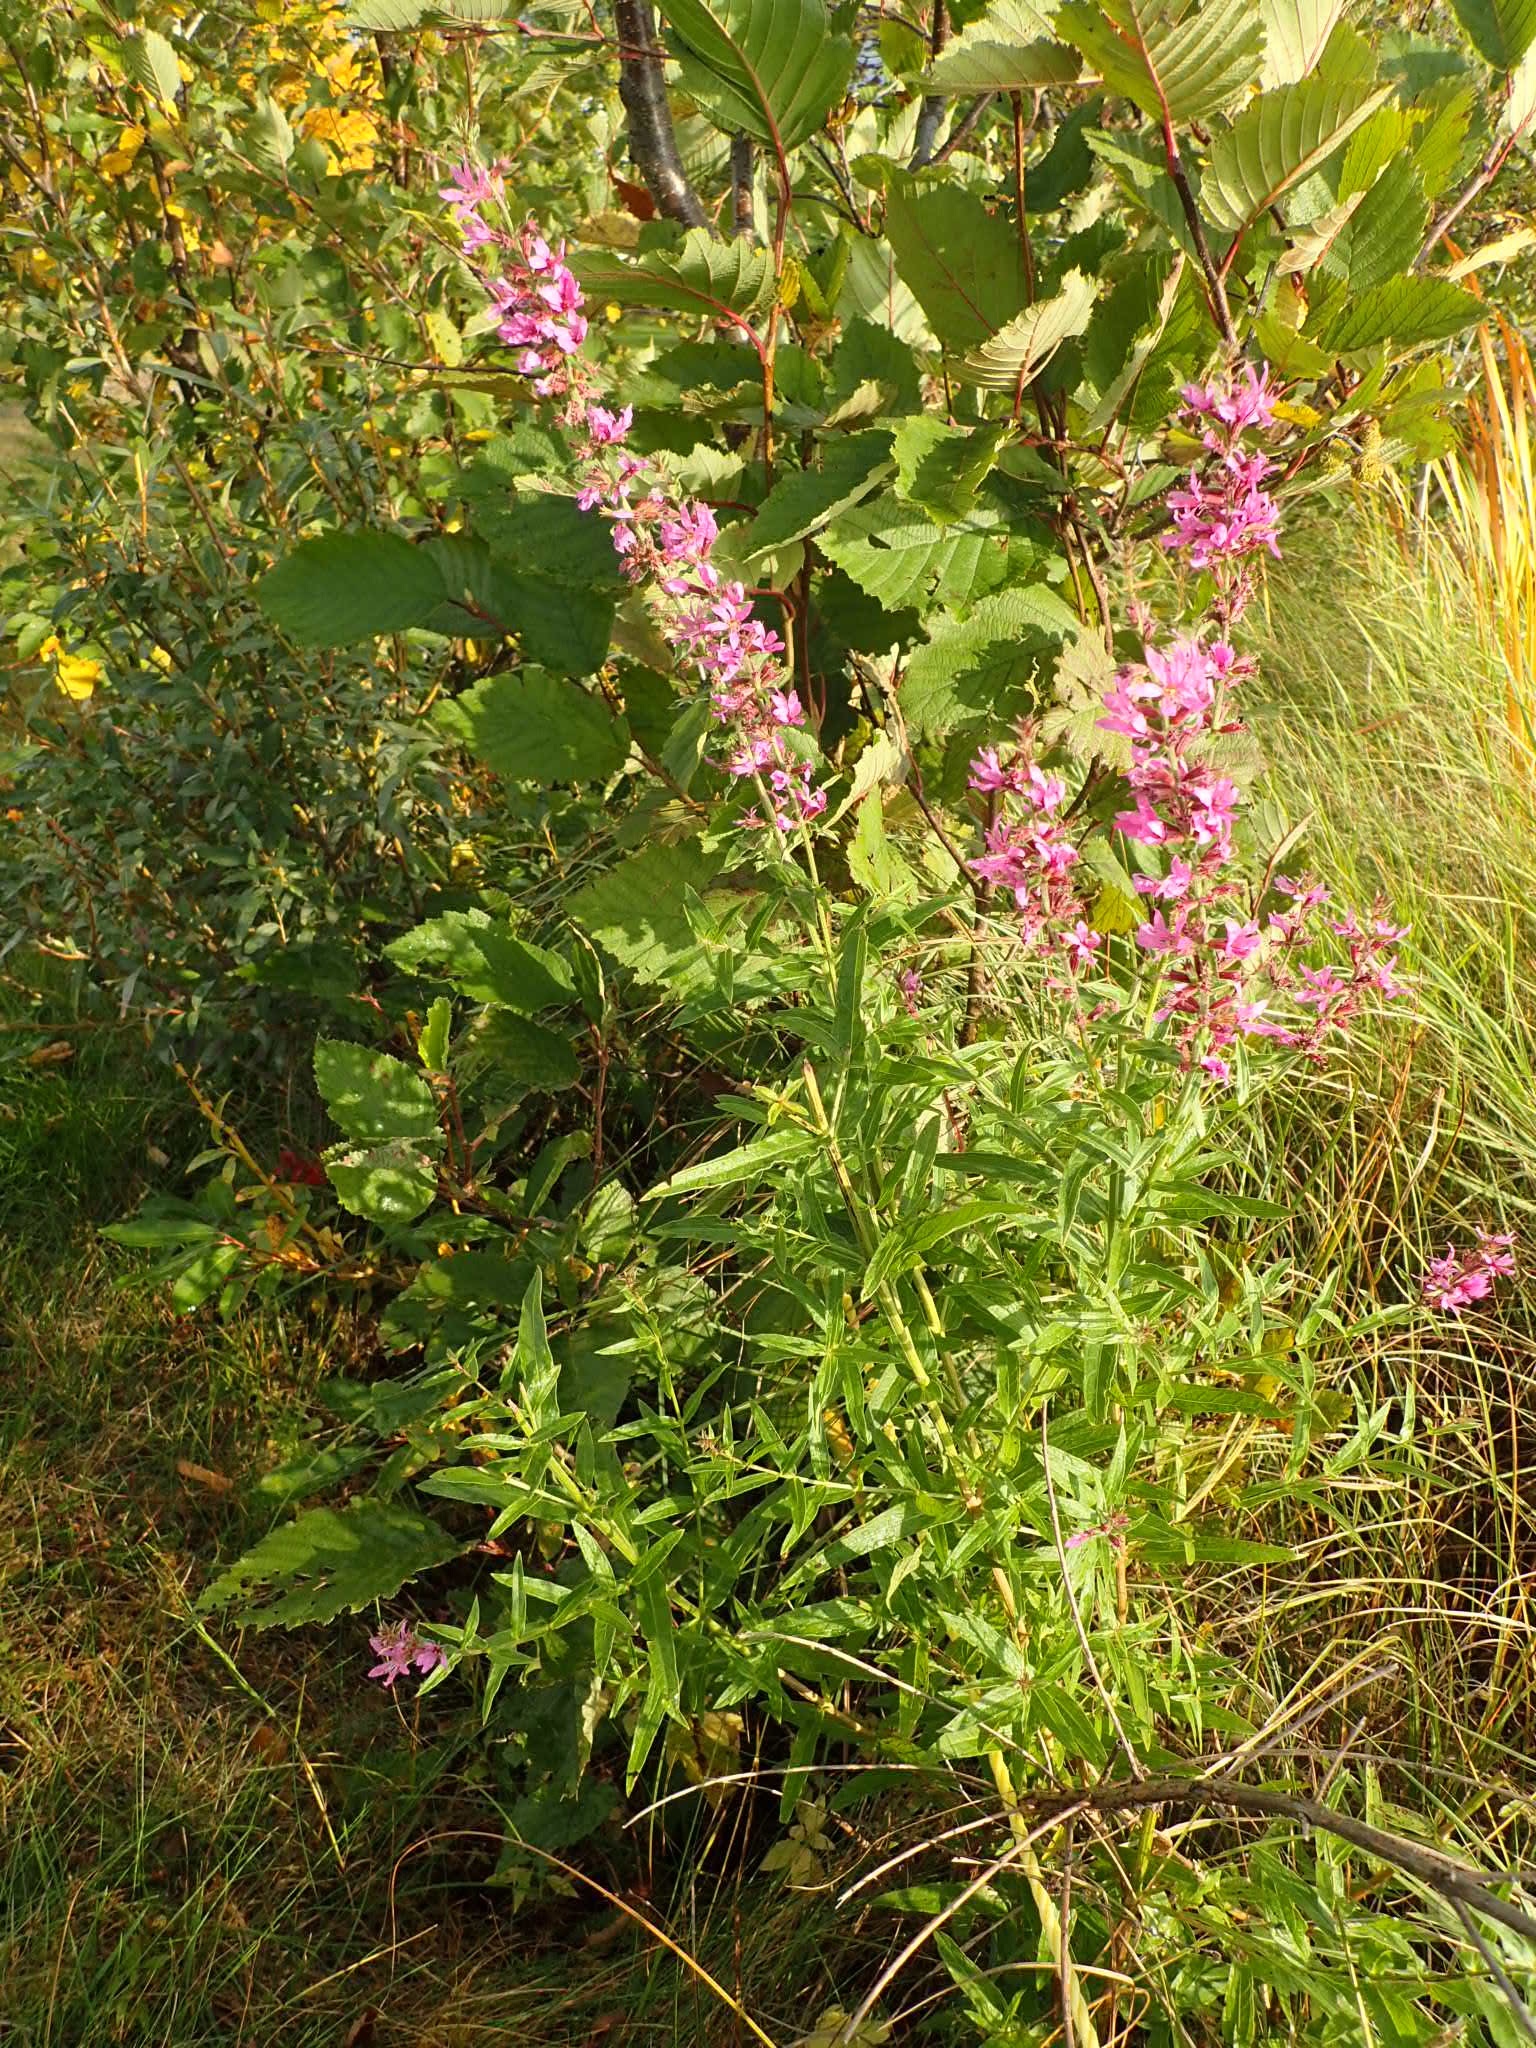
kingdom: Plantae
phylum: Tracheophyta
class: Magnoliopsida
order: Myrtales
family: Lythraceae
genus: Lythrum
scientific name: Lythrum salicaria
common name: Purple loosestrife
